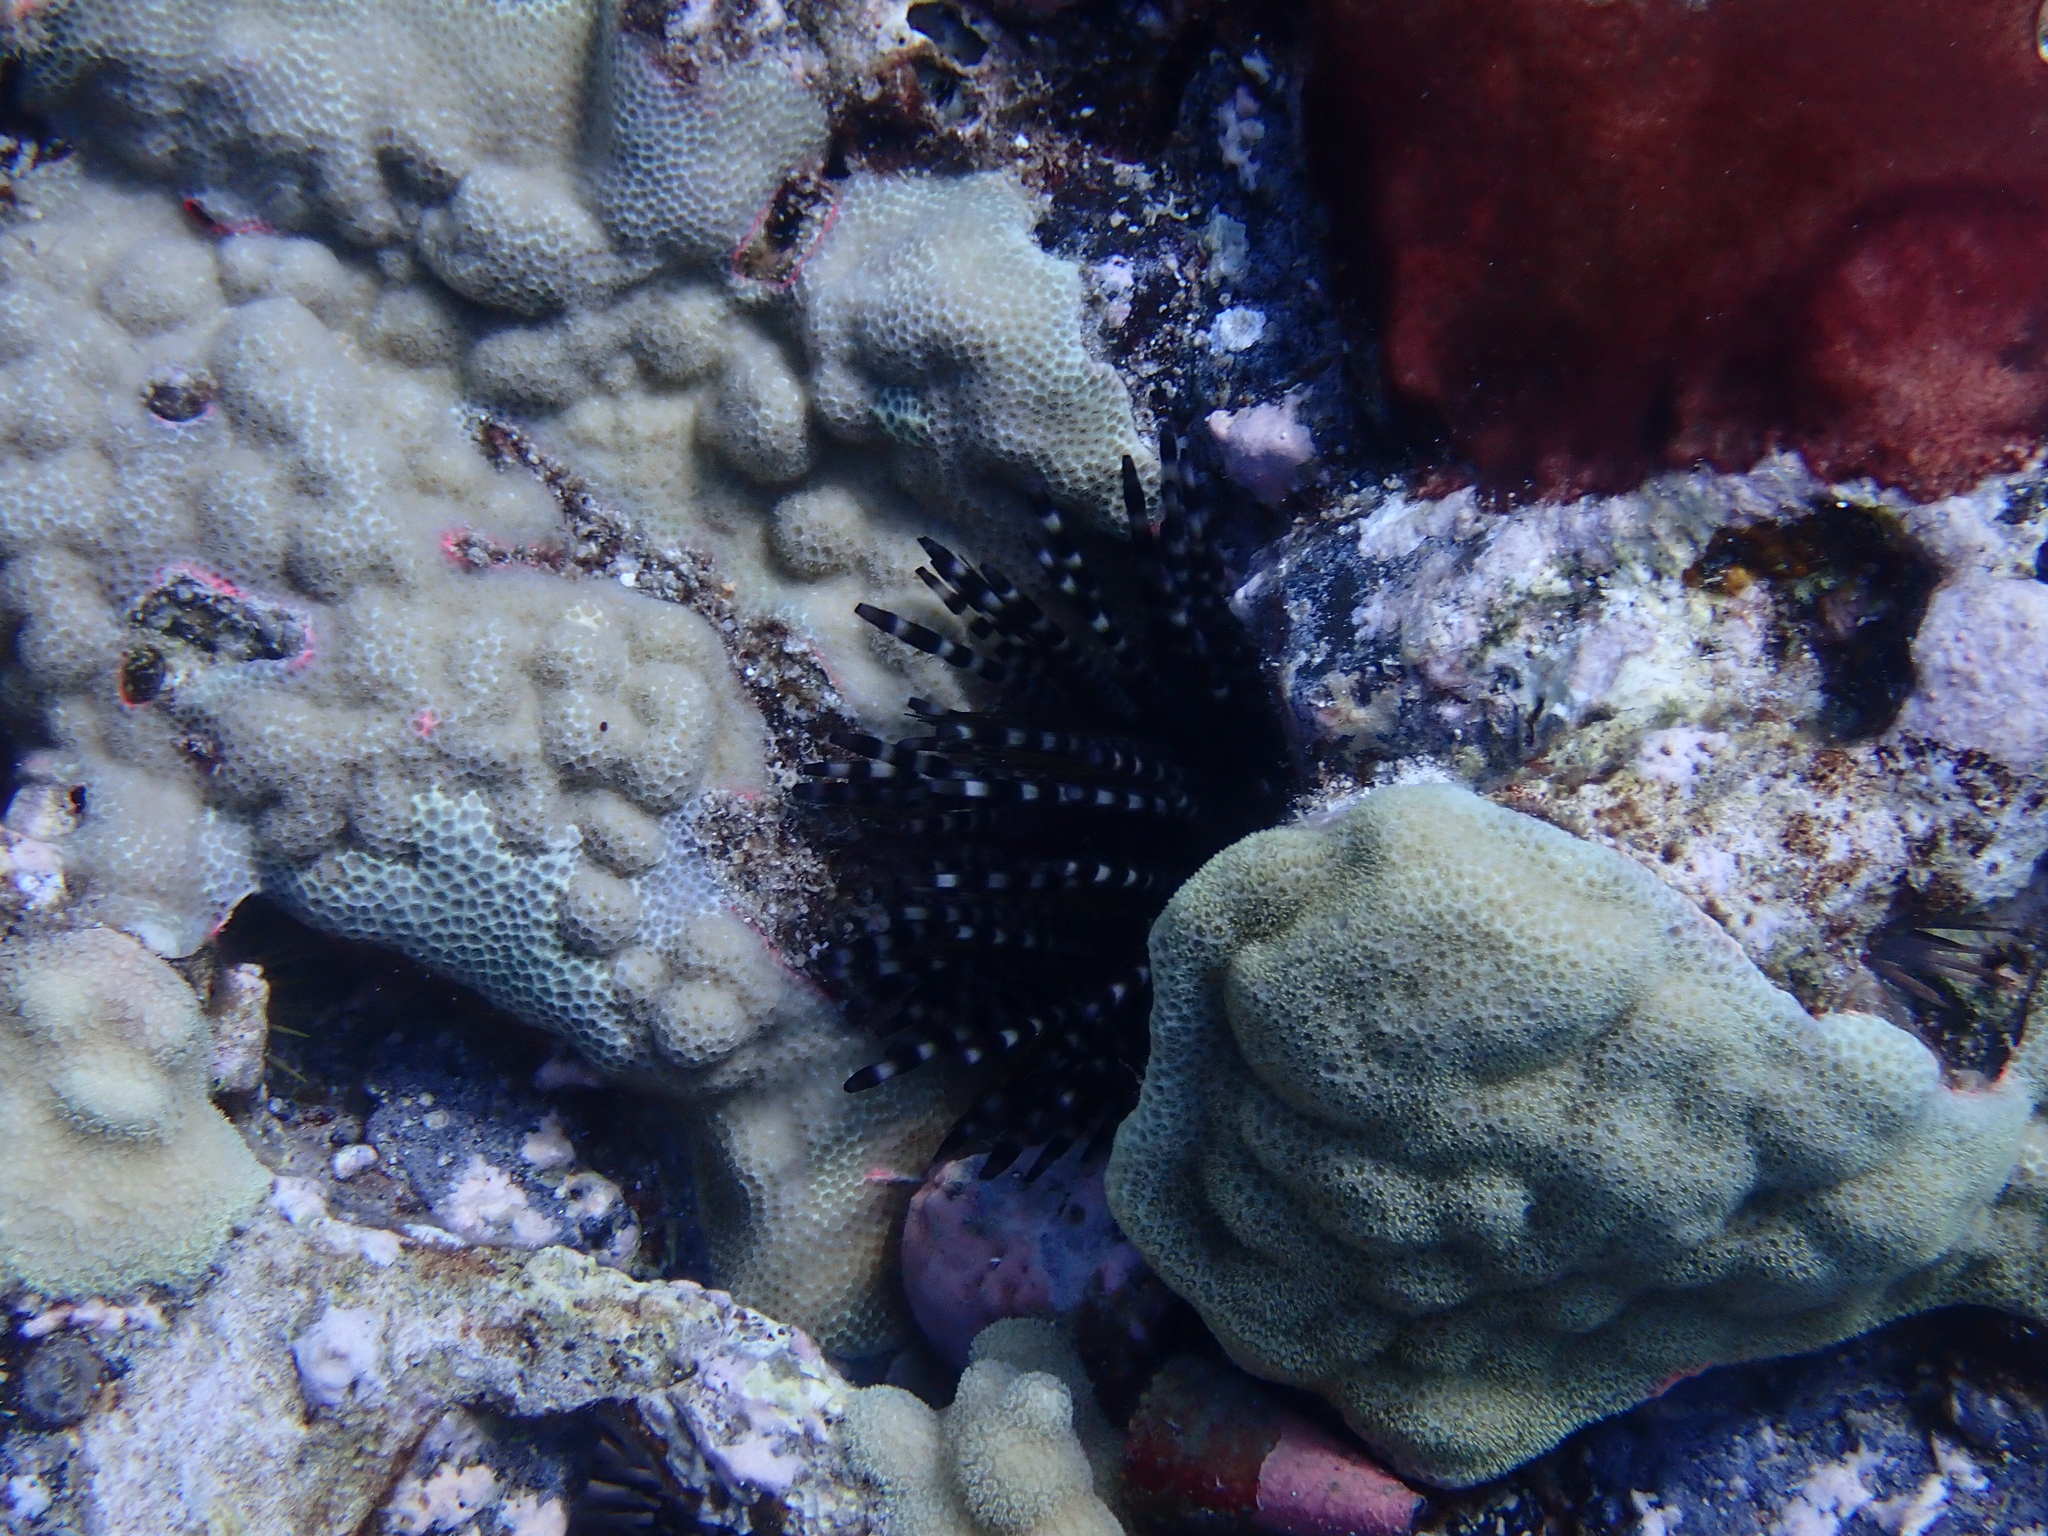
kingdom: Animalia
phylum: Echinodermata
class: Echinoidea
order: Diadematoida
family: Diadematidae
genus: Echinothrix
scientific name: Echinothrix calamaris
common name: Banded sea urchin
